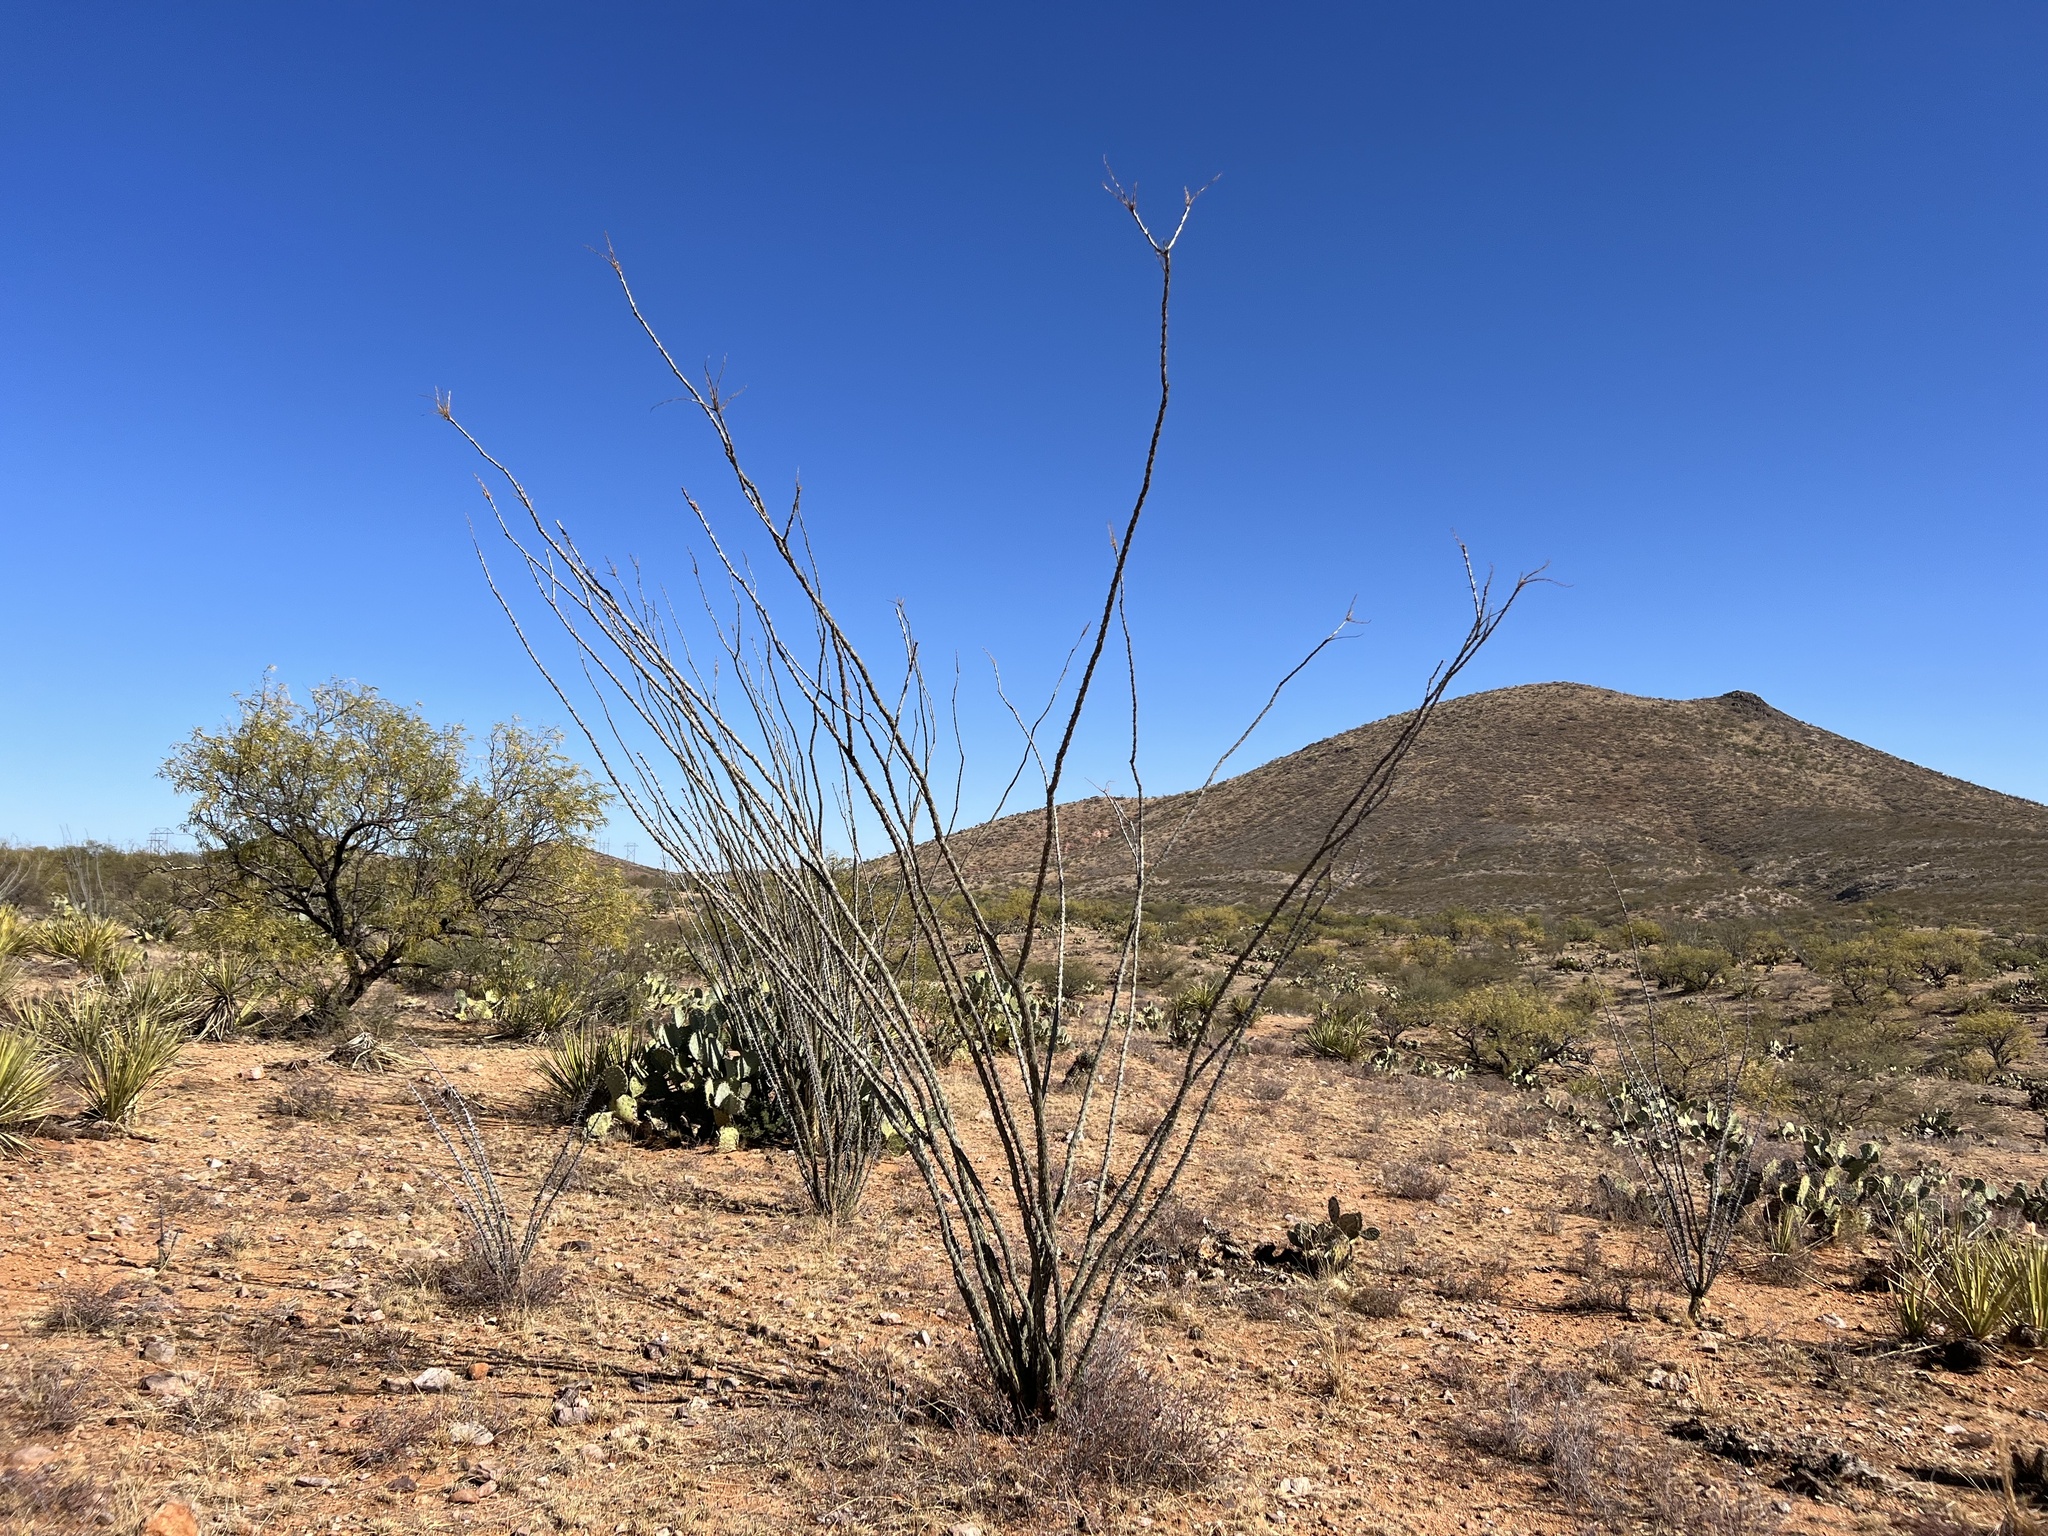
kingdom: Plantae
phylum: Tracheophyta
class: Magnoliopsida
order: Ericales
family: Fouquieriaceae
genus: Fouquieria
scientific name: Fouquieria splendens
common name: Vine-cactus
